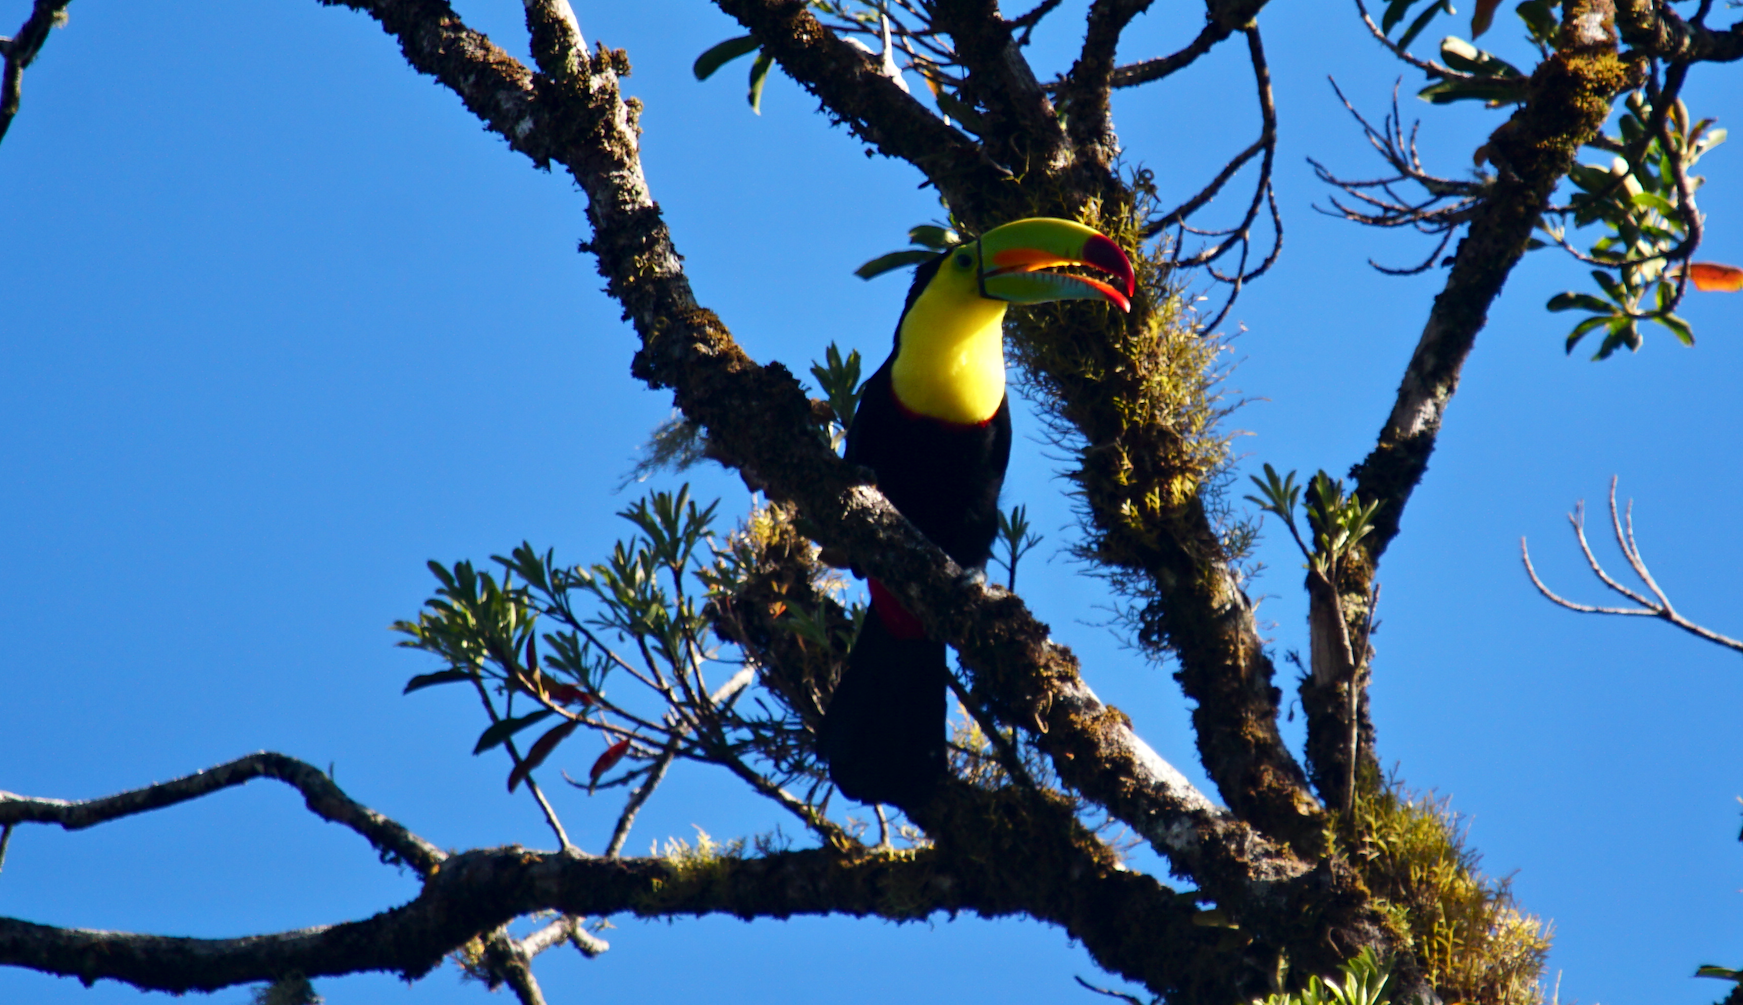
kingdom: Animalia
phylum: Chordata
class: Aves
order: Piciformes
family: Ramphastidae
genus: Ramphastos
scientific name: Ramphastos sulfuratus
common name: Keel-billed toucan
